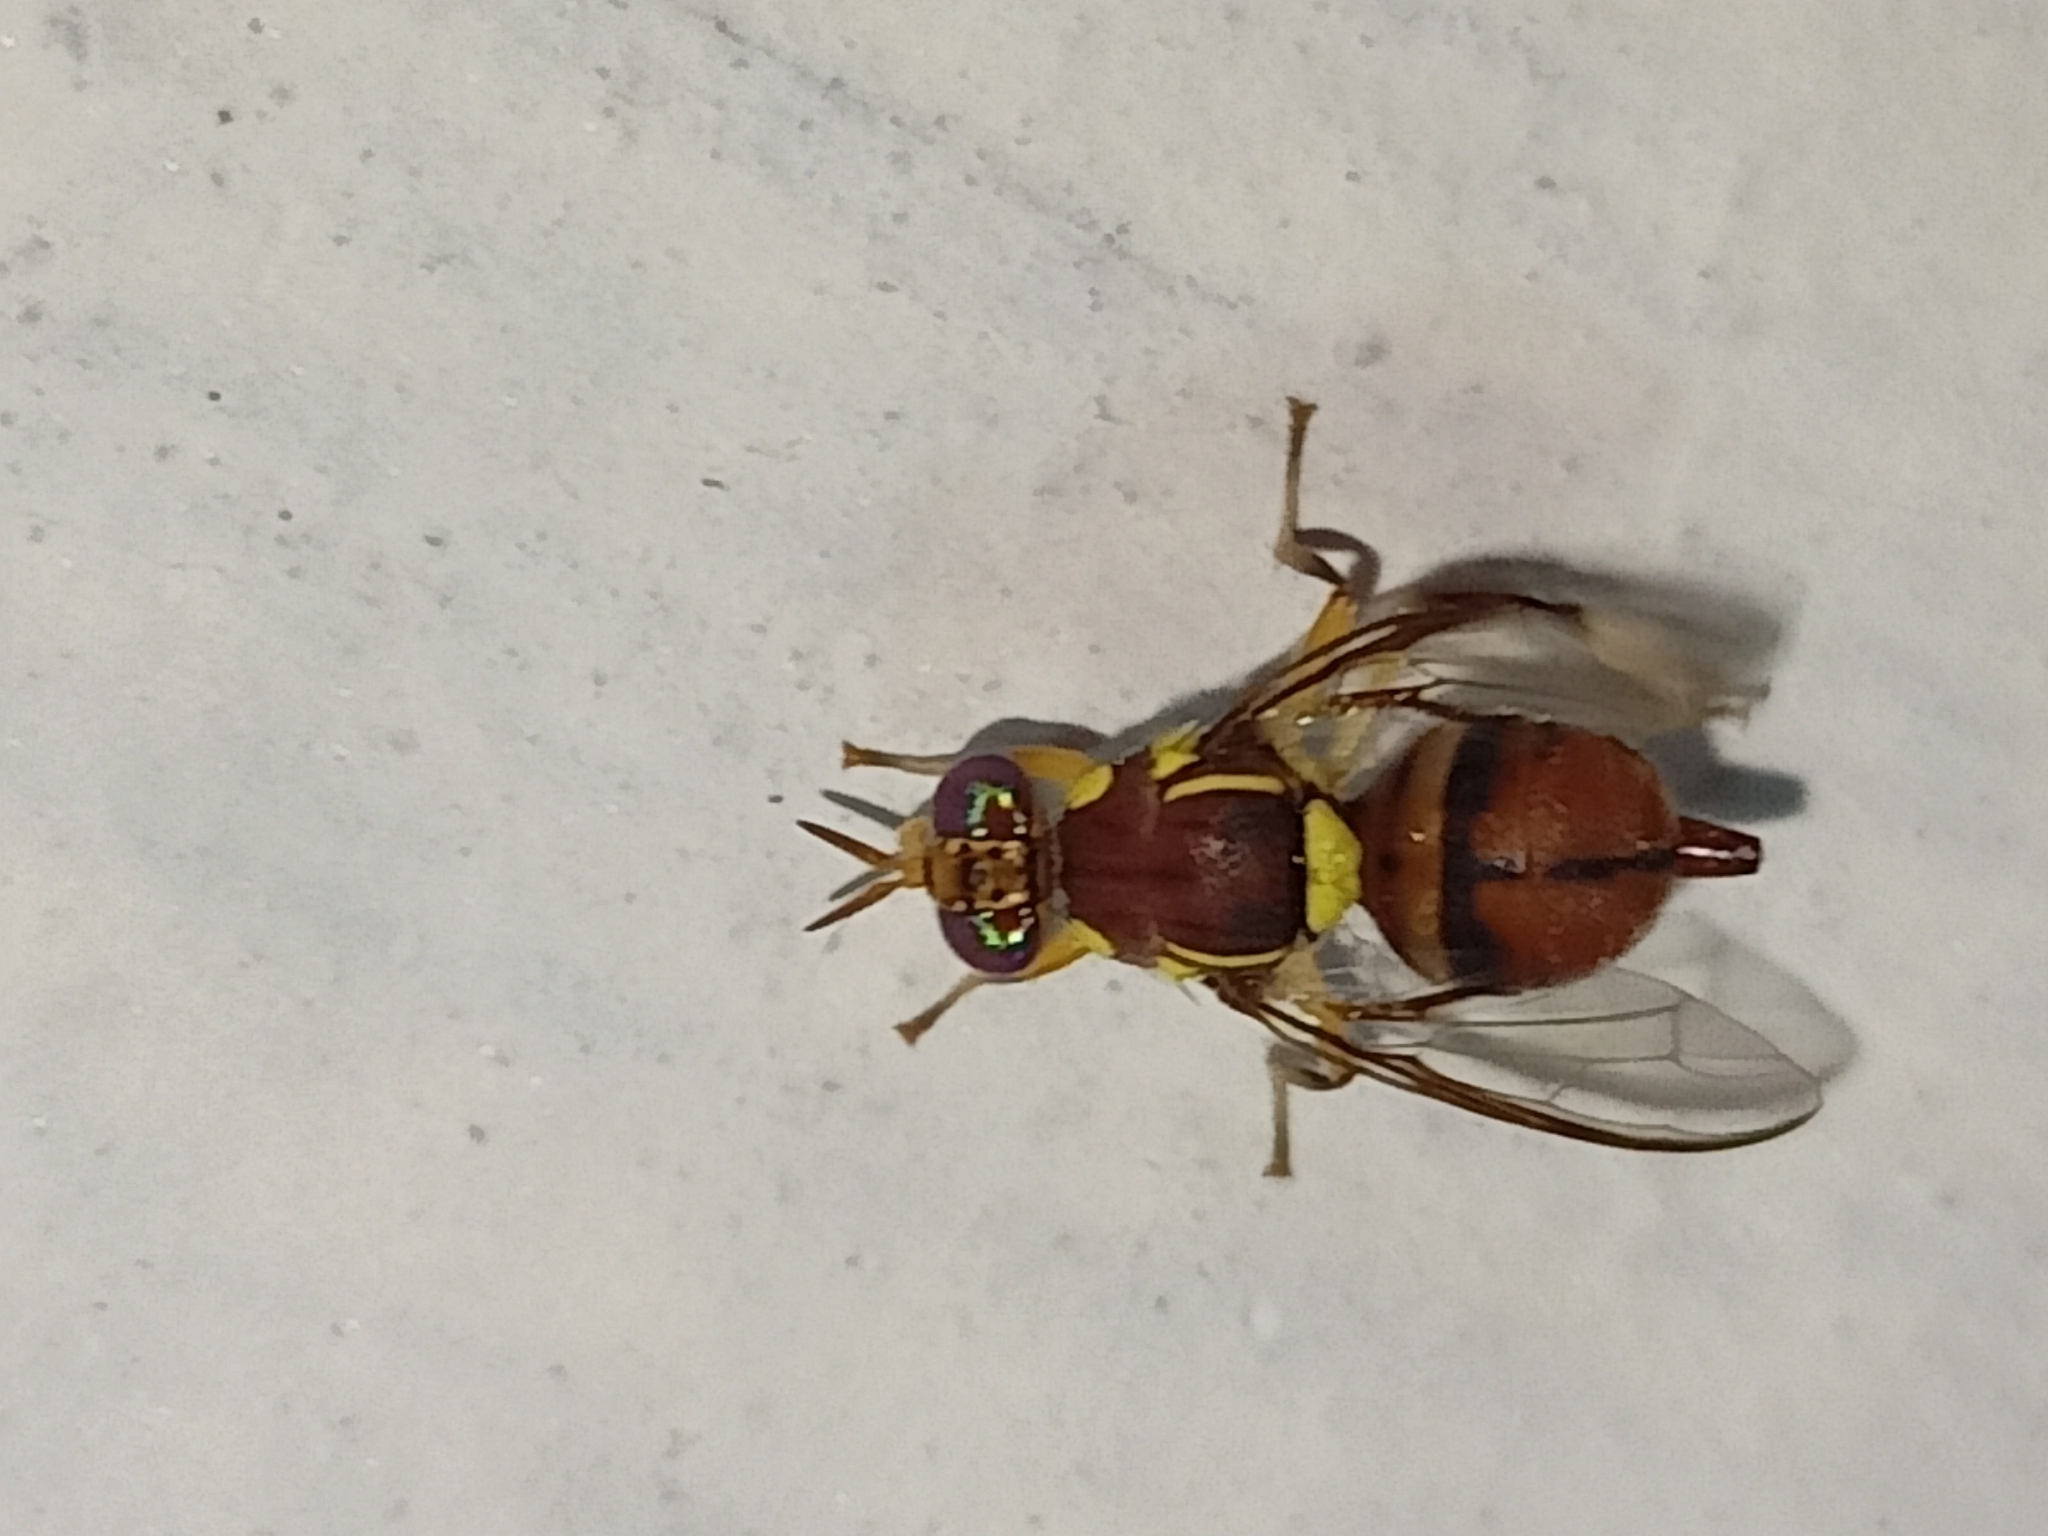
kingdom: Animalia
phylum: Arthropoda
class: Insecta
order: Diptera
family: Tephritidae
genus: Bactrocera
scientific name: Bactrocera dorsalis
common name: Oriental fruit fly
